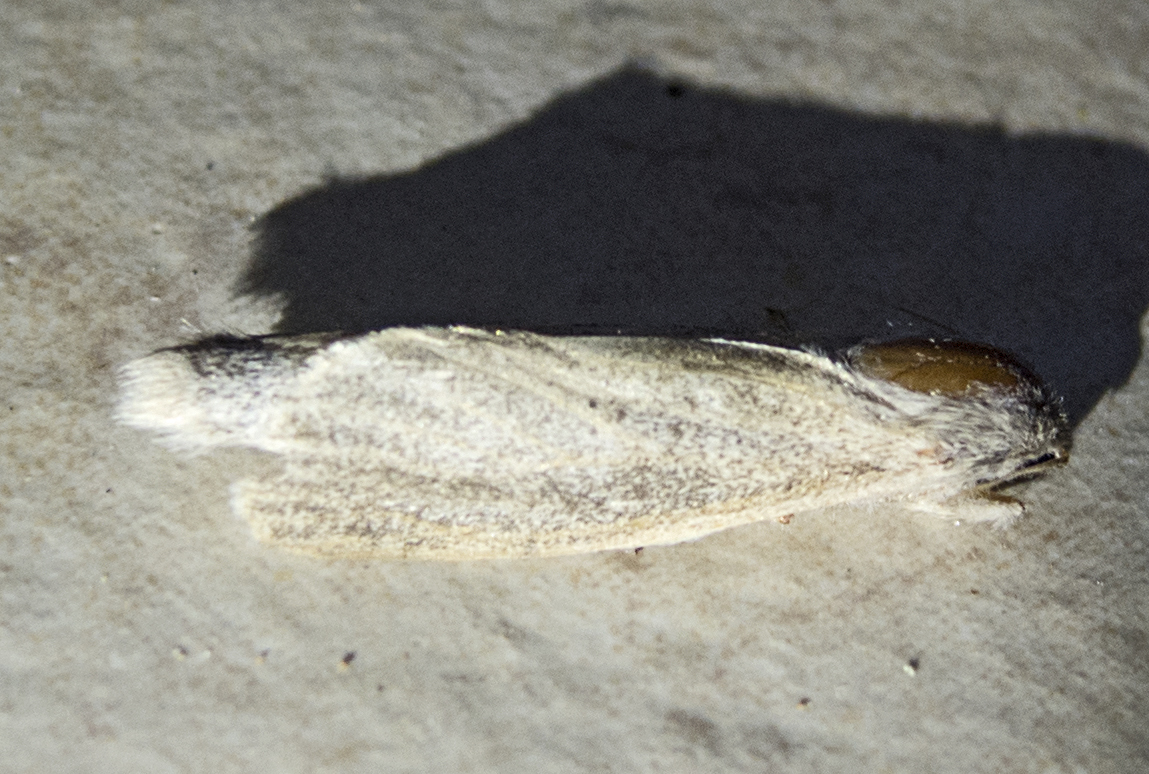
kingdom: Animalia
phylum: Arthropoda
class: Insecta
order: Lepidoptera
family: Cossidae
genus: Phragmataecia
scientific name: Phragmataecia castaneae
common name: Reed leopard
